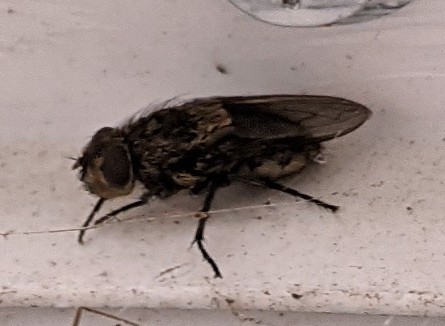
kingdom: Animalia
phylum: Arthropoda
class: Insecta
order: Diptera
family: Polleniidae
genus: Pollenia
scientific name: Pollenia
